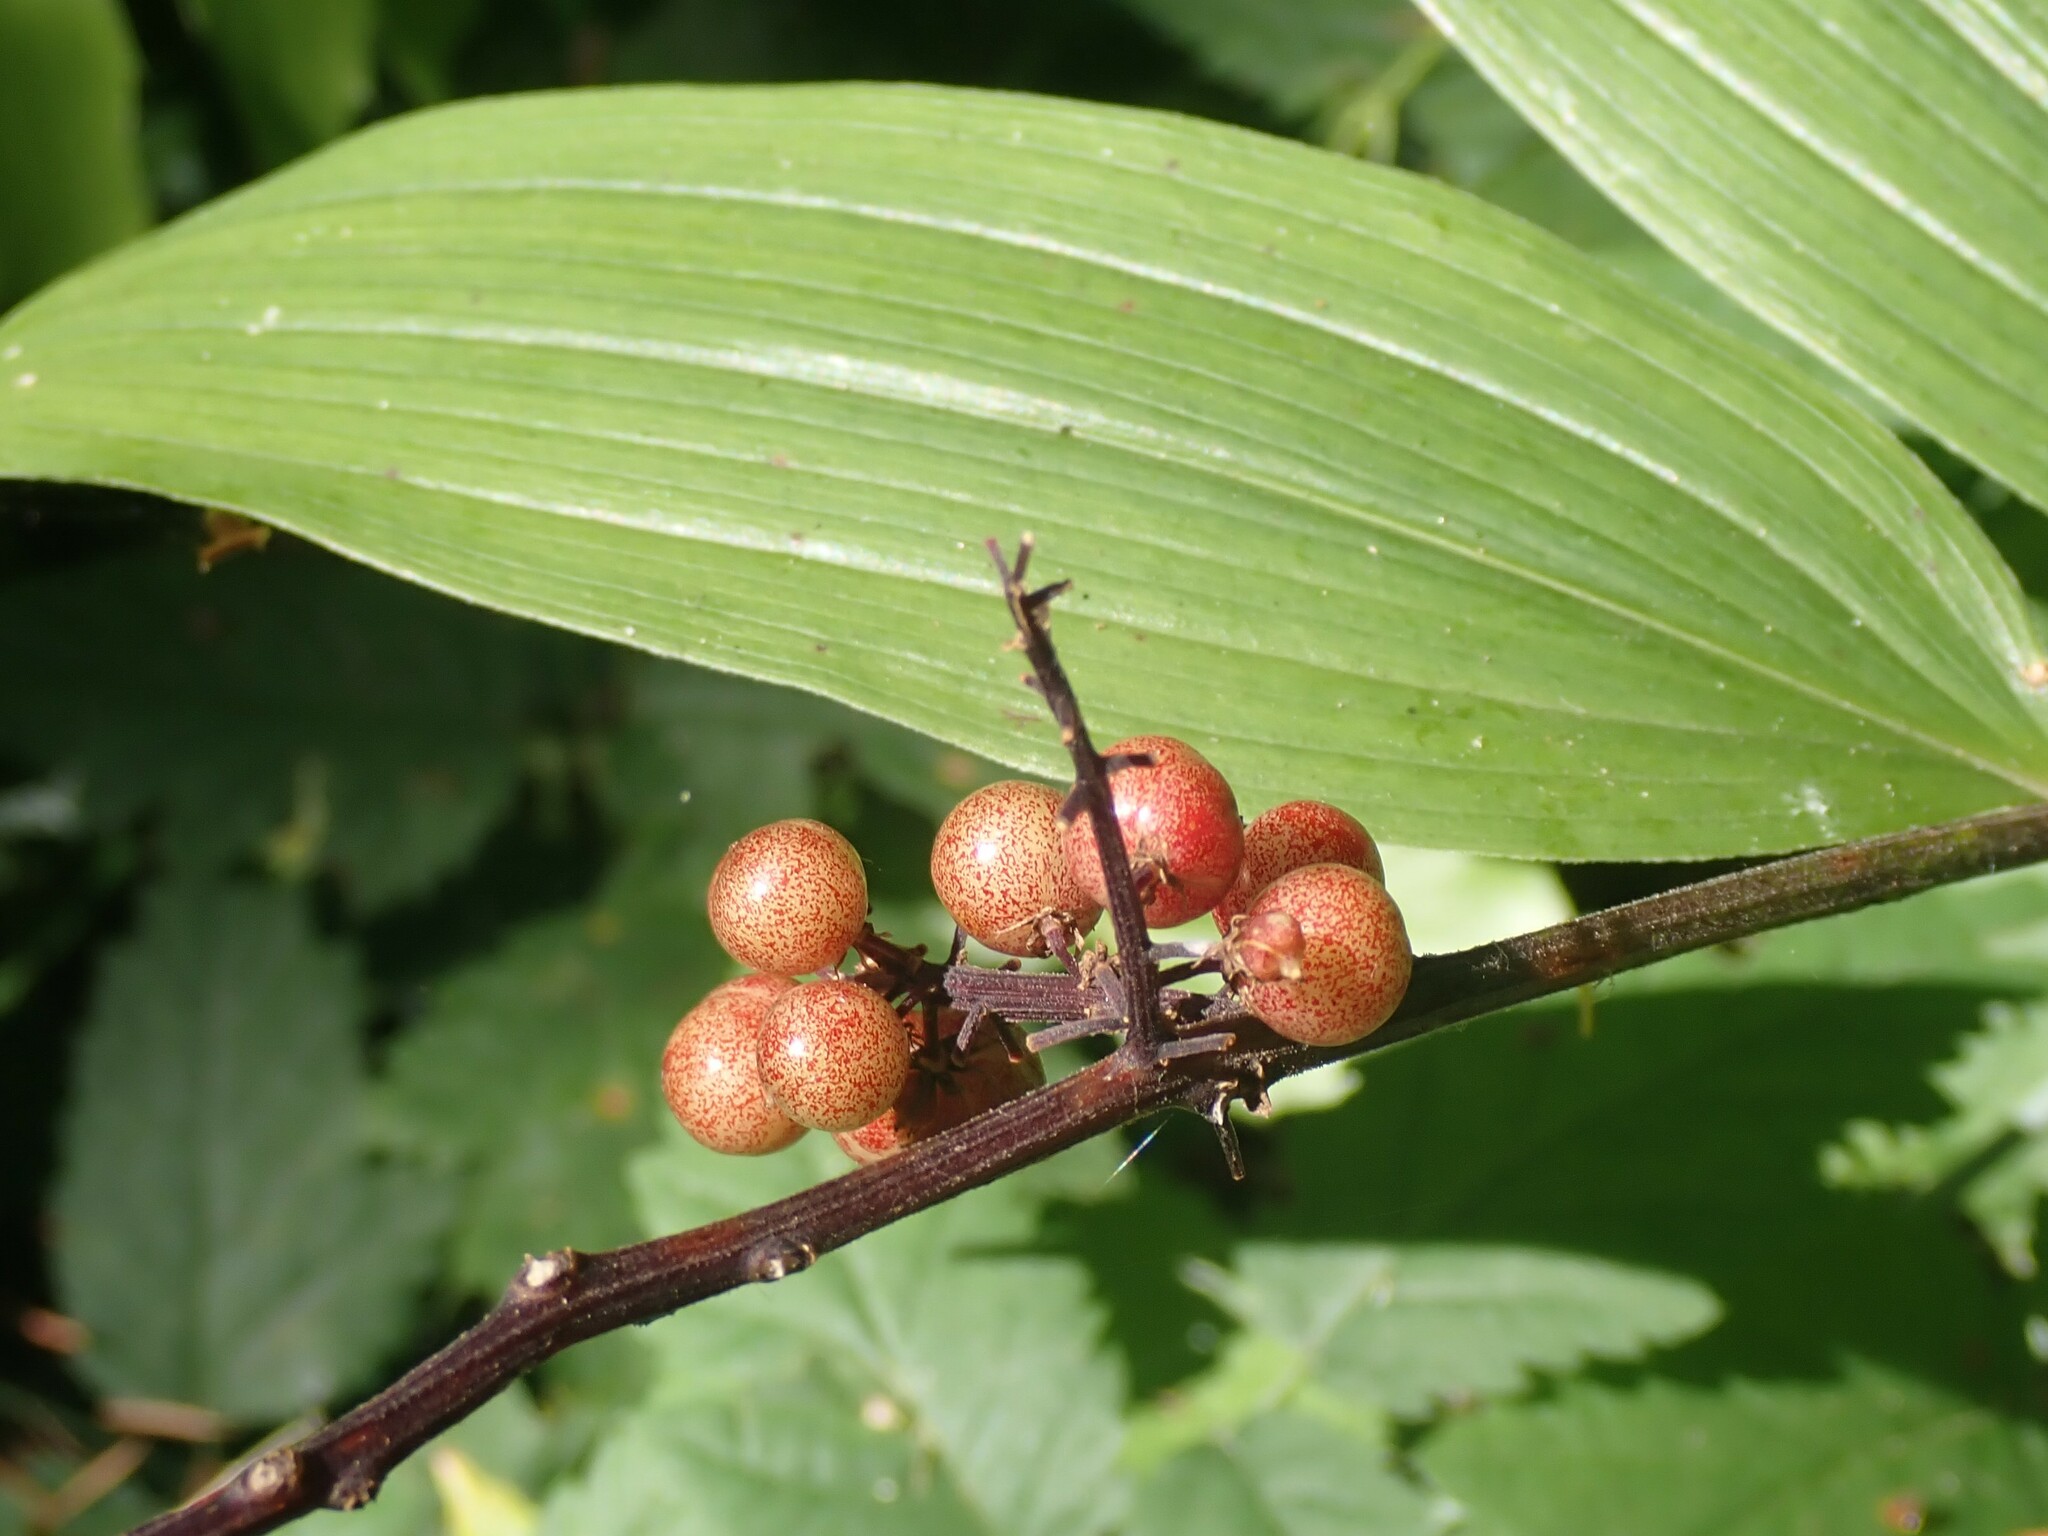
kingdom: Plantae
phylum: Tracheophyta
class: Liliopsida
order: Asparagales
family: Asparagaceae
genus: Maianthemum
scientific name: Maianthemum racemosum
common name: False spikenard
